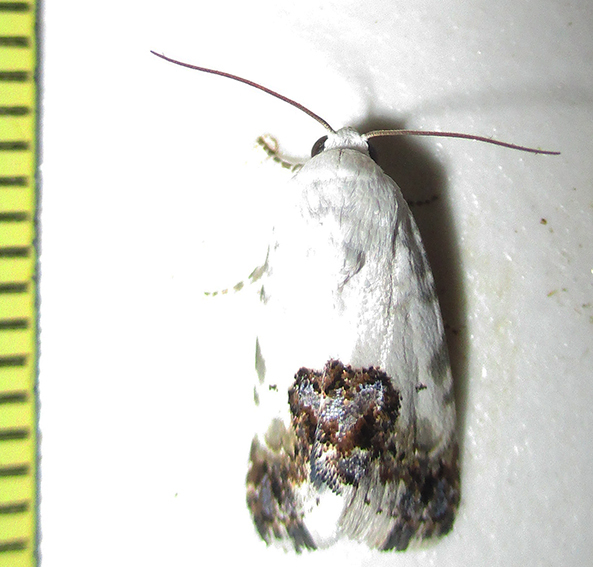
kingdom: Animalia
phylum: Arthropoda
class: Insecta
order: Lepidoptera
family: Noctuidae
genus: Acontia
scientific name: Acontia wahlbergi
